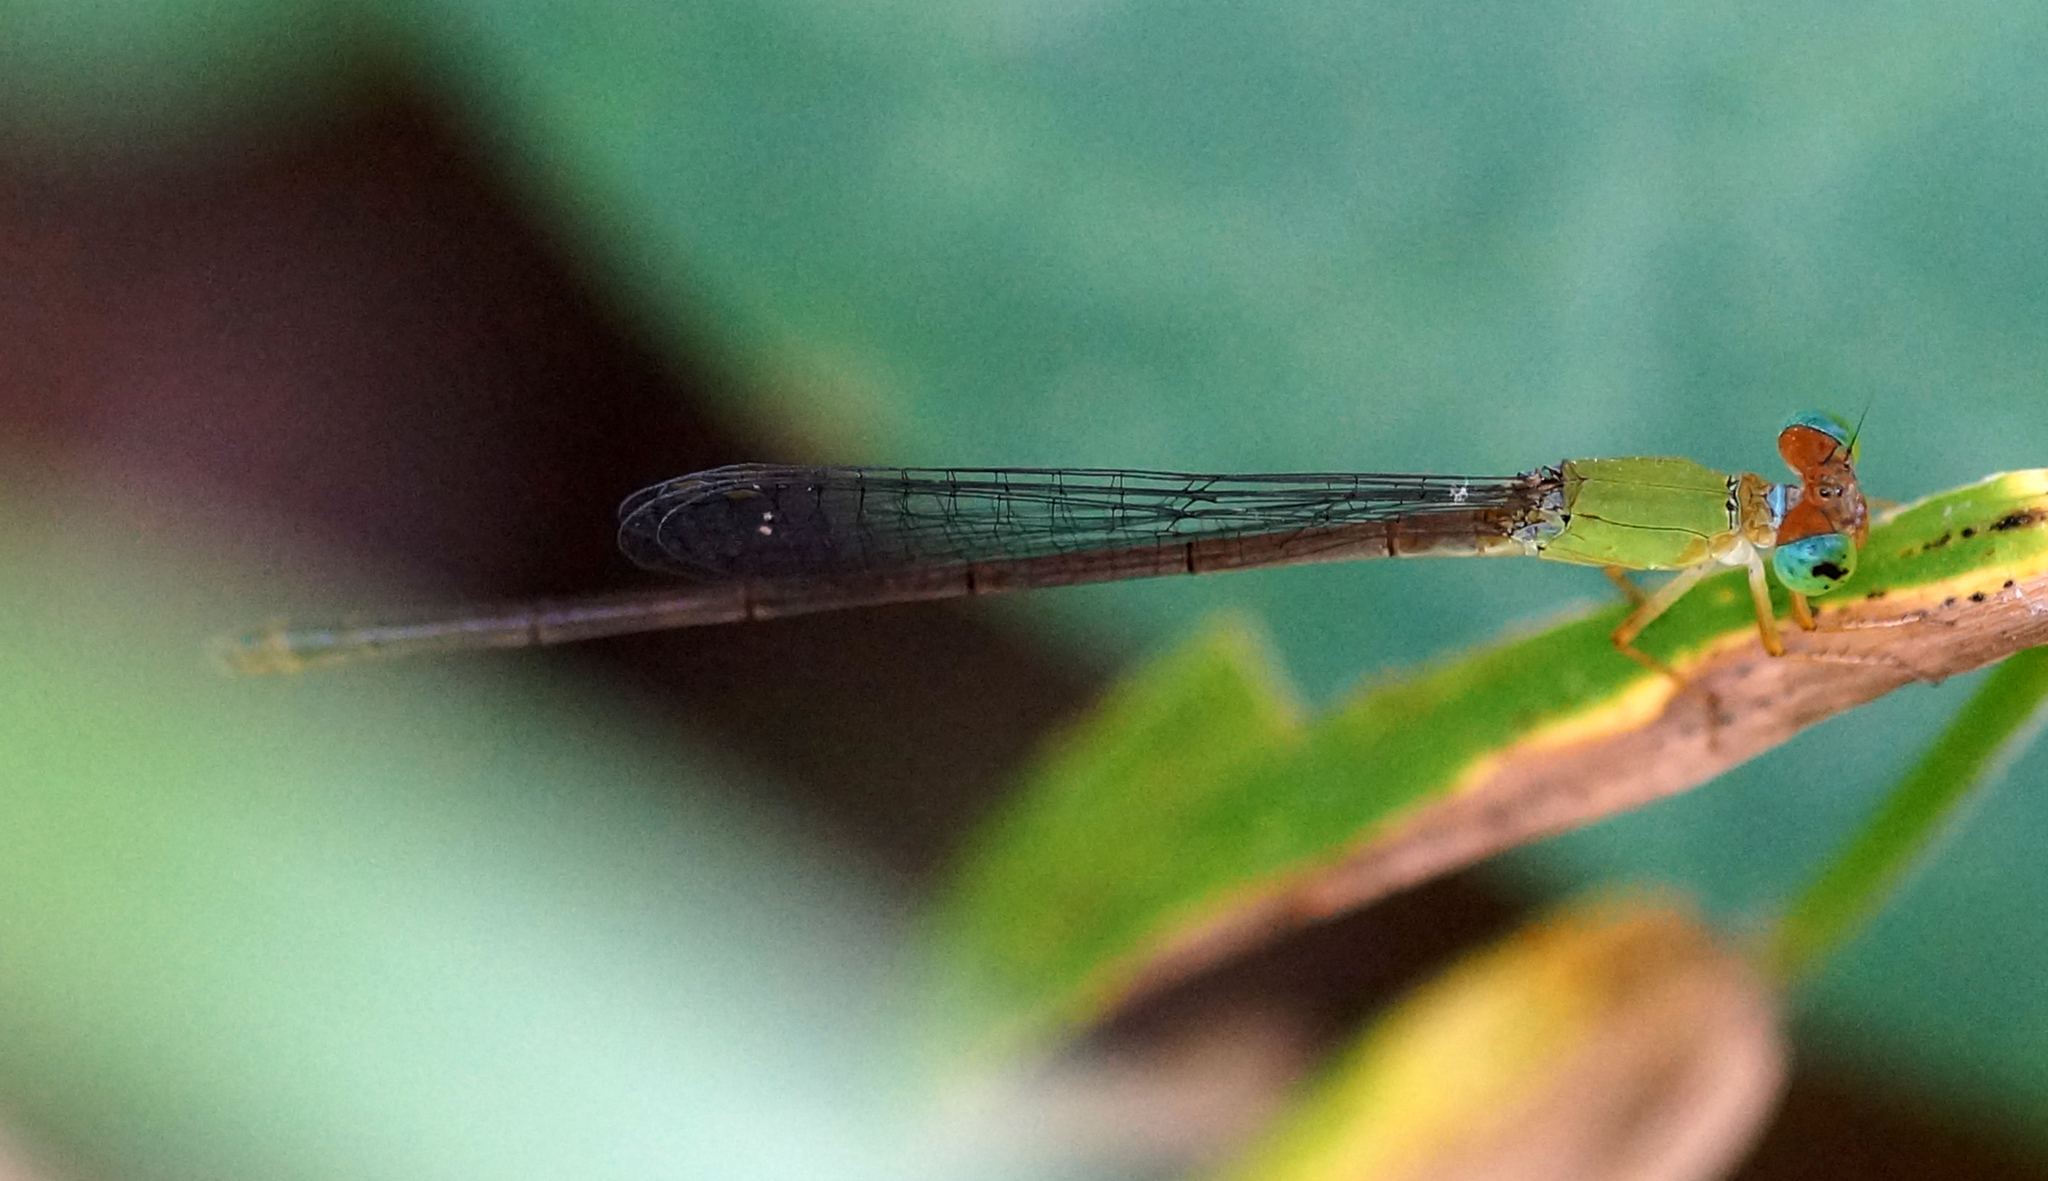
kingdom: Animalia
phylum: Arthropoda
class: Insecta
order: Odonata
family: Coenagrionidae
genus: Ceriagrion
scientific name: Ceriagrion cerinorubellum
